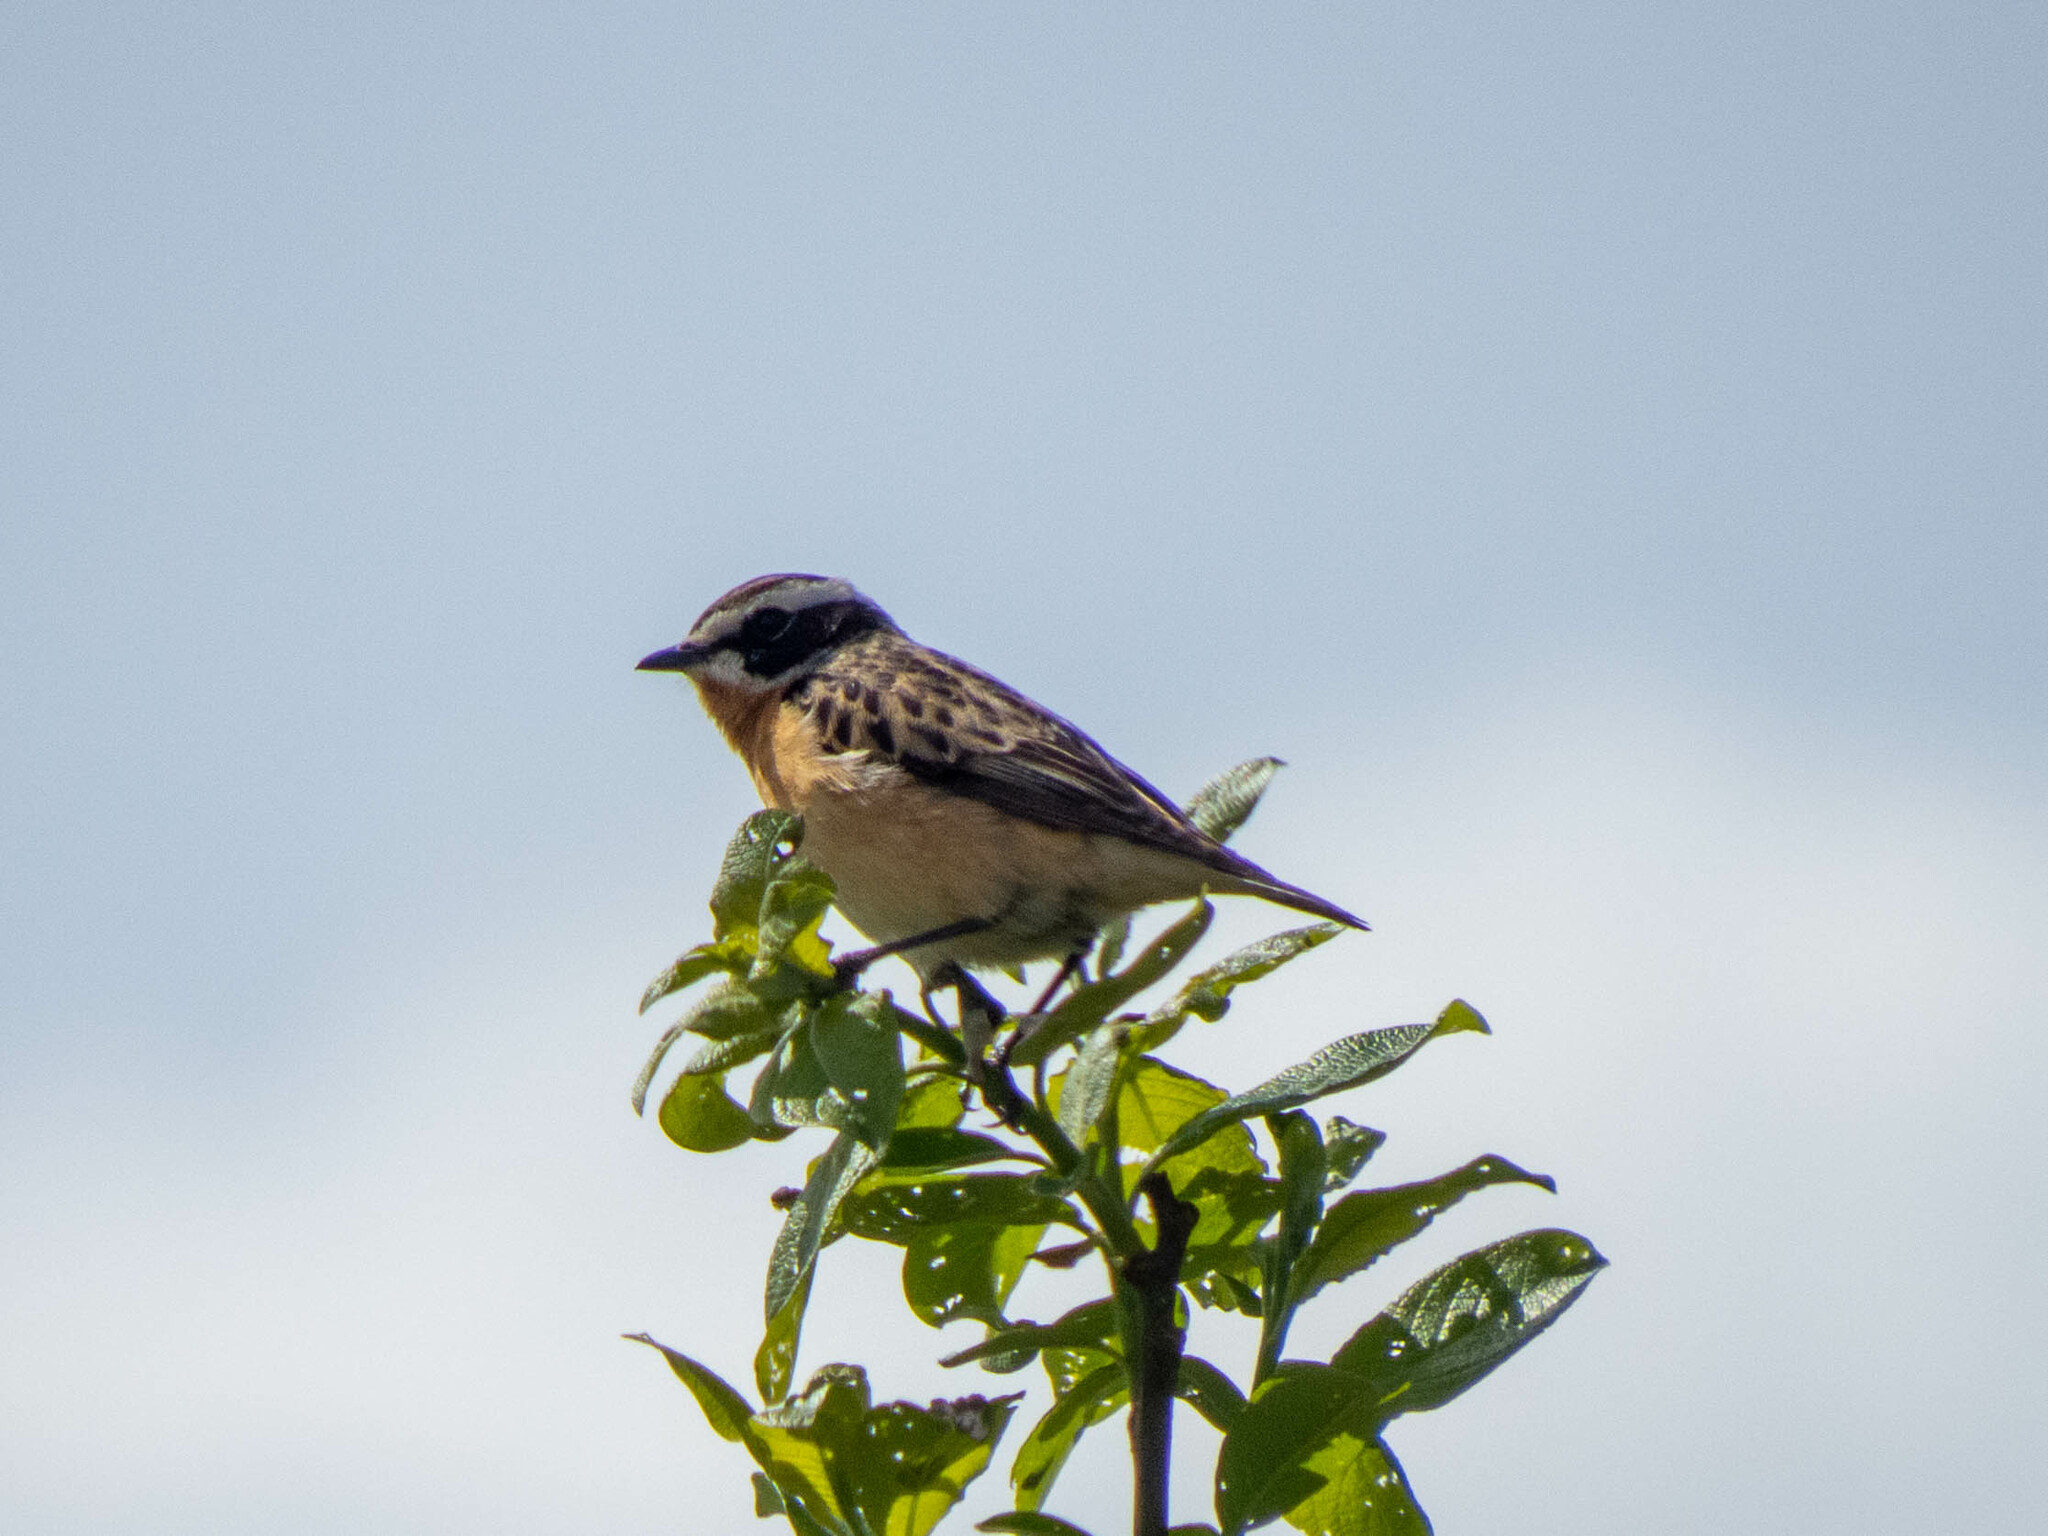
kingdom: Animalia
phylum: Chordata
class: Aves
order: Passeriformes
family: Muscicapidae
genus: Saxicola
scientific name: Saxicola rubetra
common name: Whinchat
